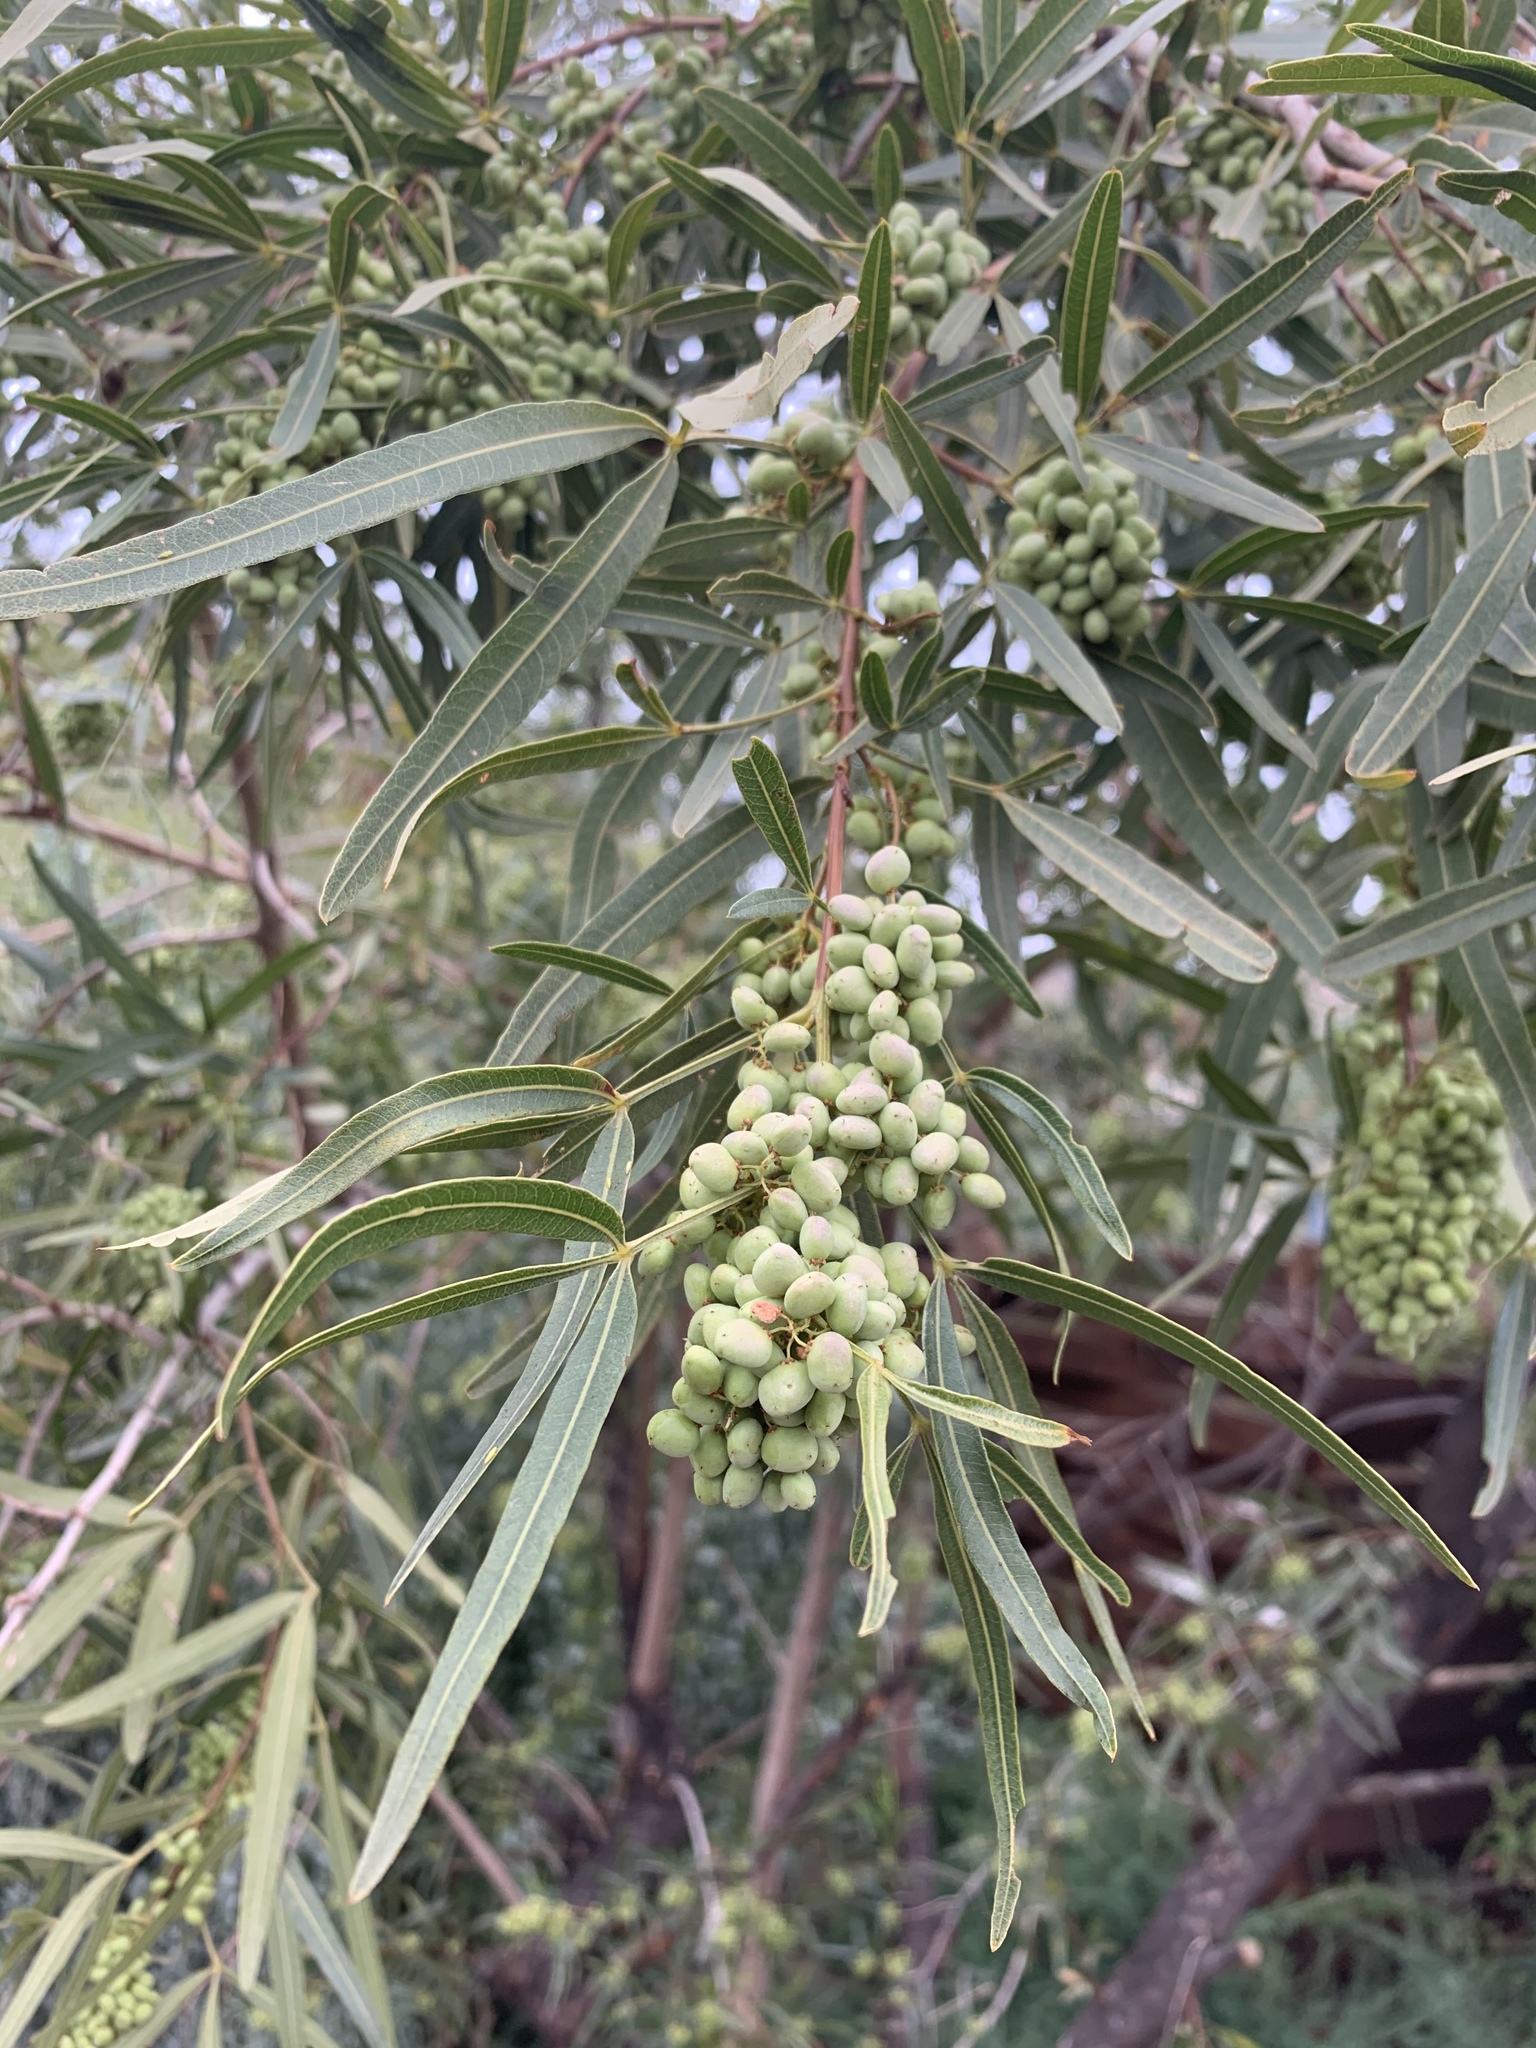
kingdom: Plantae
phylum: Tracheophyta
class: Magnoliopsida
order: Sapindales
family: Anacardiaceae
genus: Searsia
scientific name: Searsia lancea
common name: Cashew
